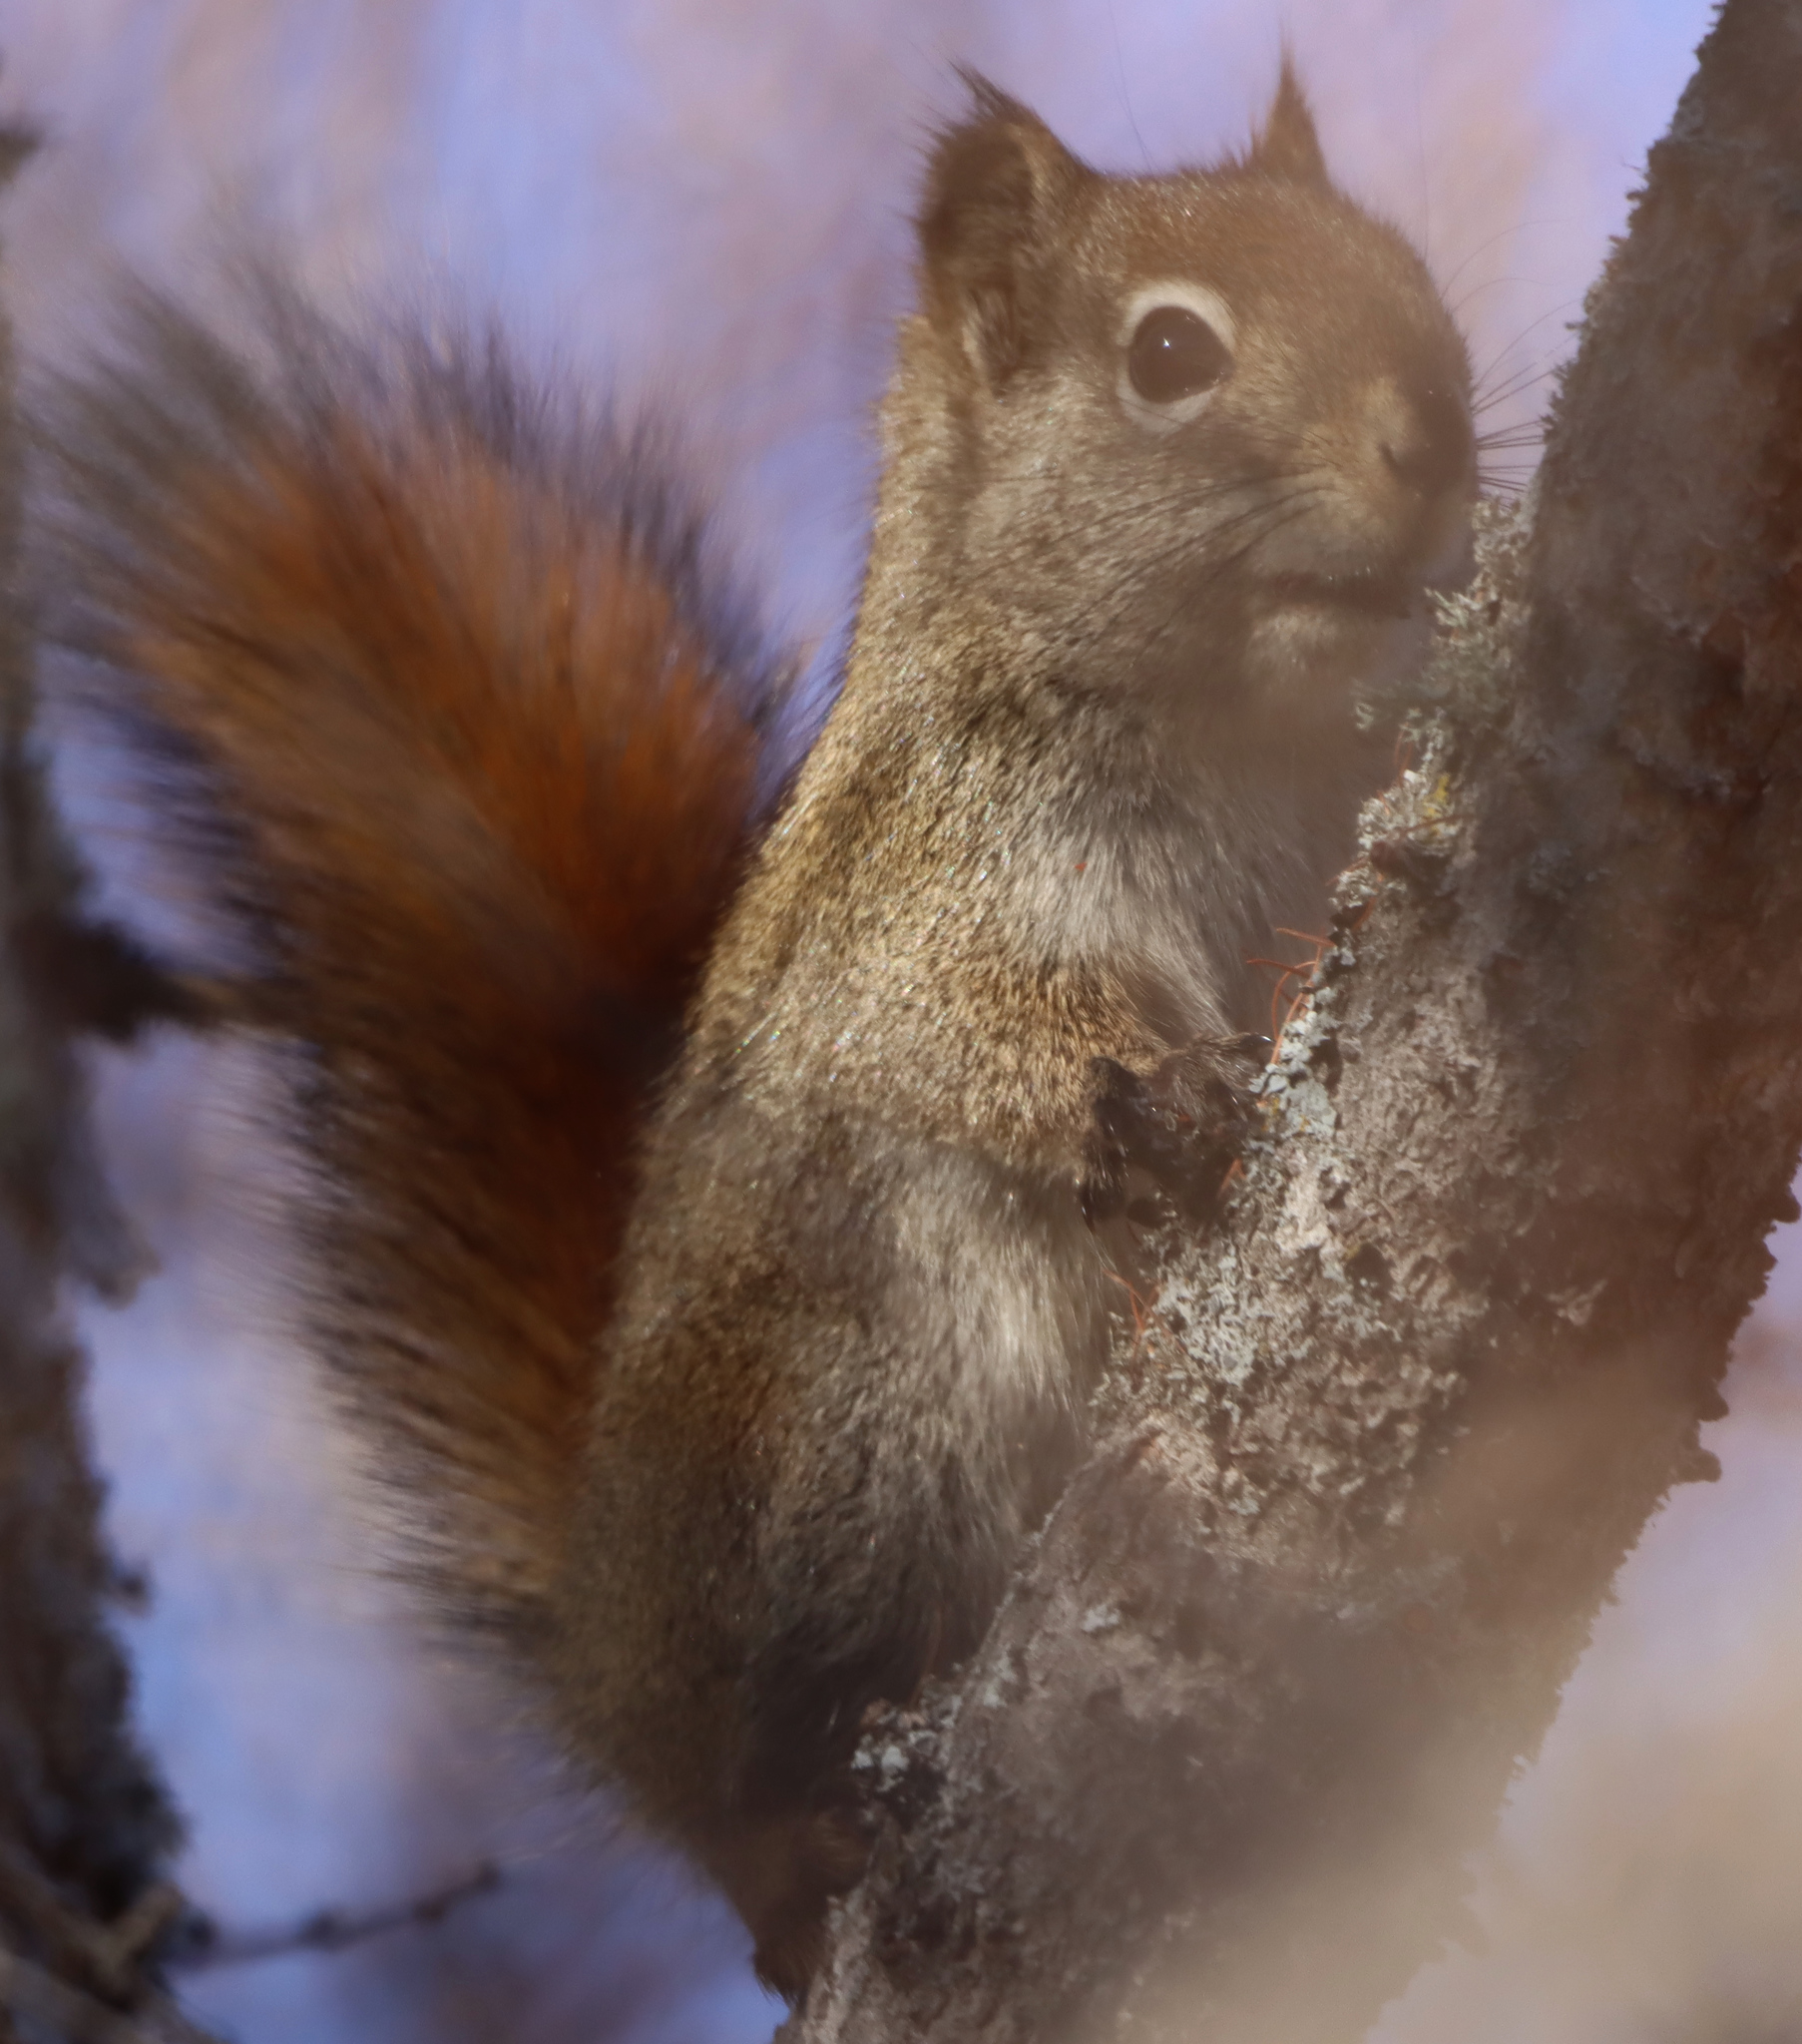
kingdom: Animalia
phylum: Chordata
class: Mammalia
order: Rodentia
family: Sciuridae
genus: Tamiasciurus
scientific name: Tamiasciurus hudsonicus
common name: Red squirrel
